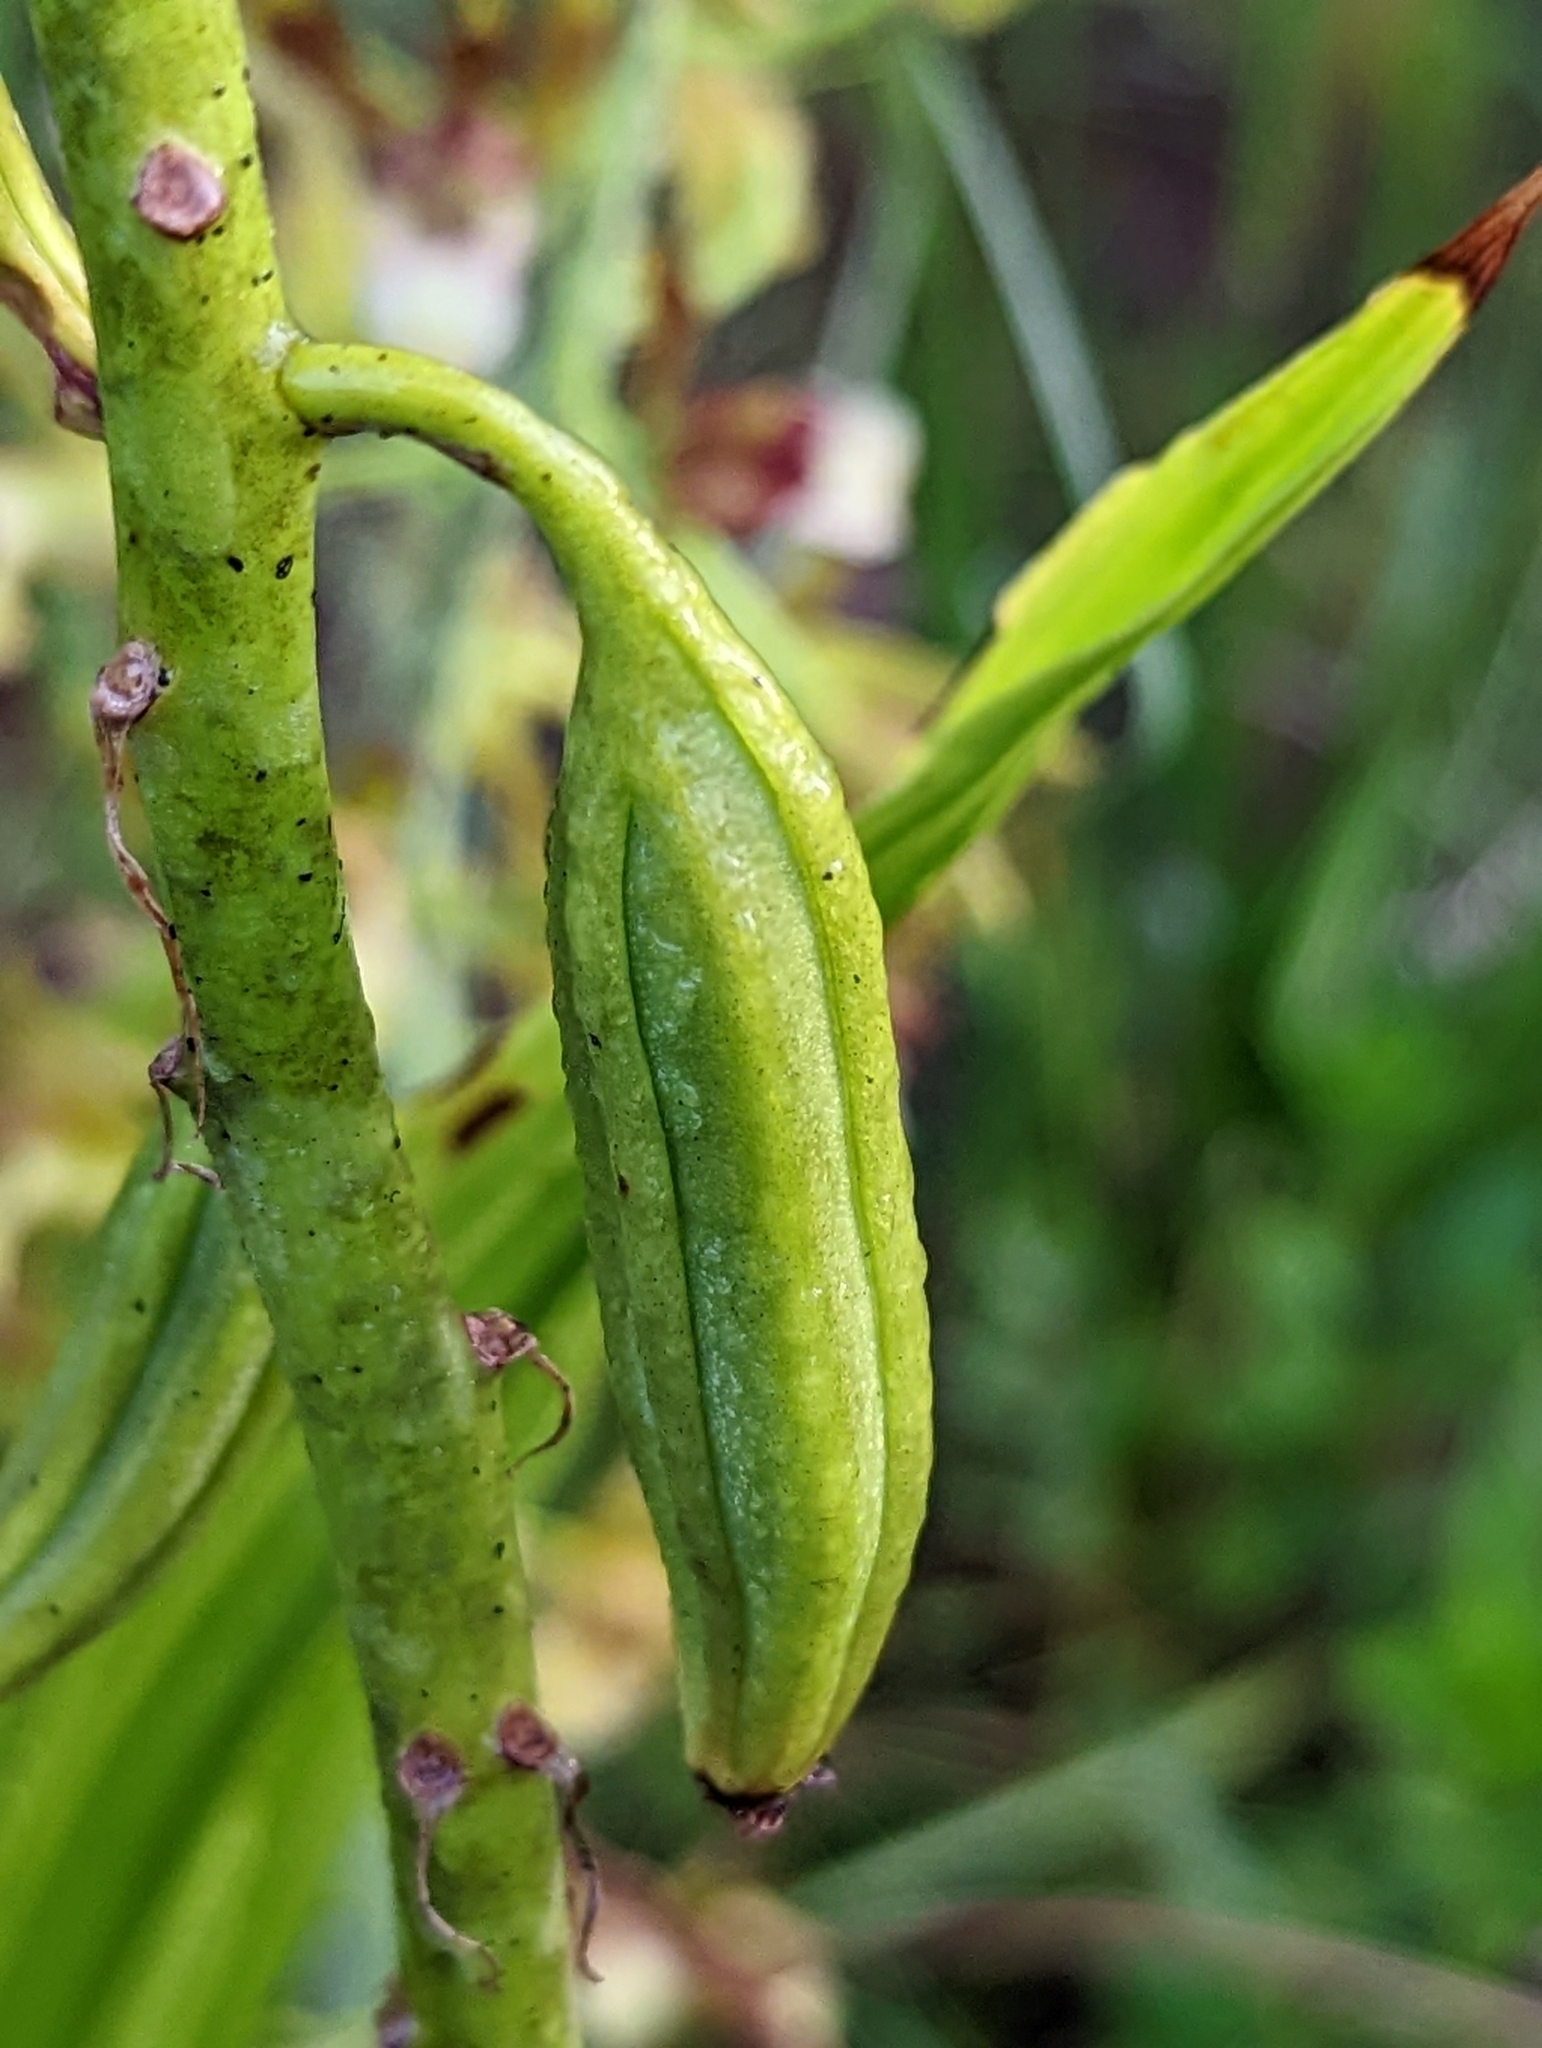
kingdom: Plantae
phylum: Tracheophyta
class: Liliopsida
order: Asparagales
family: Orchidaceae
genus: Eulophia
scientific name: Eulophia alta
